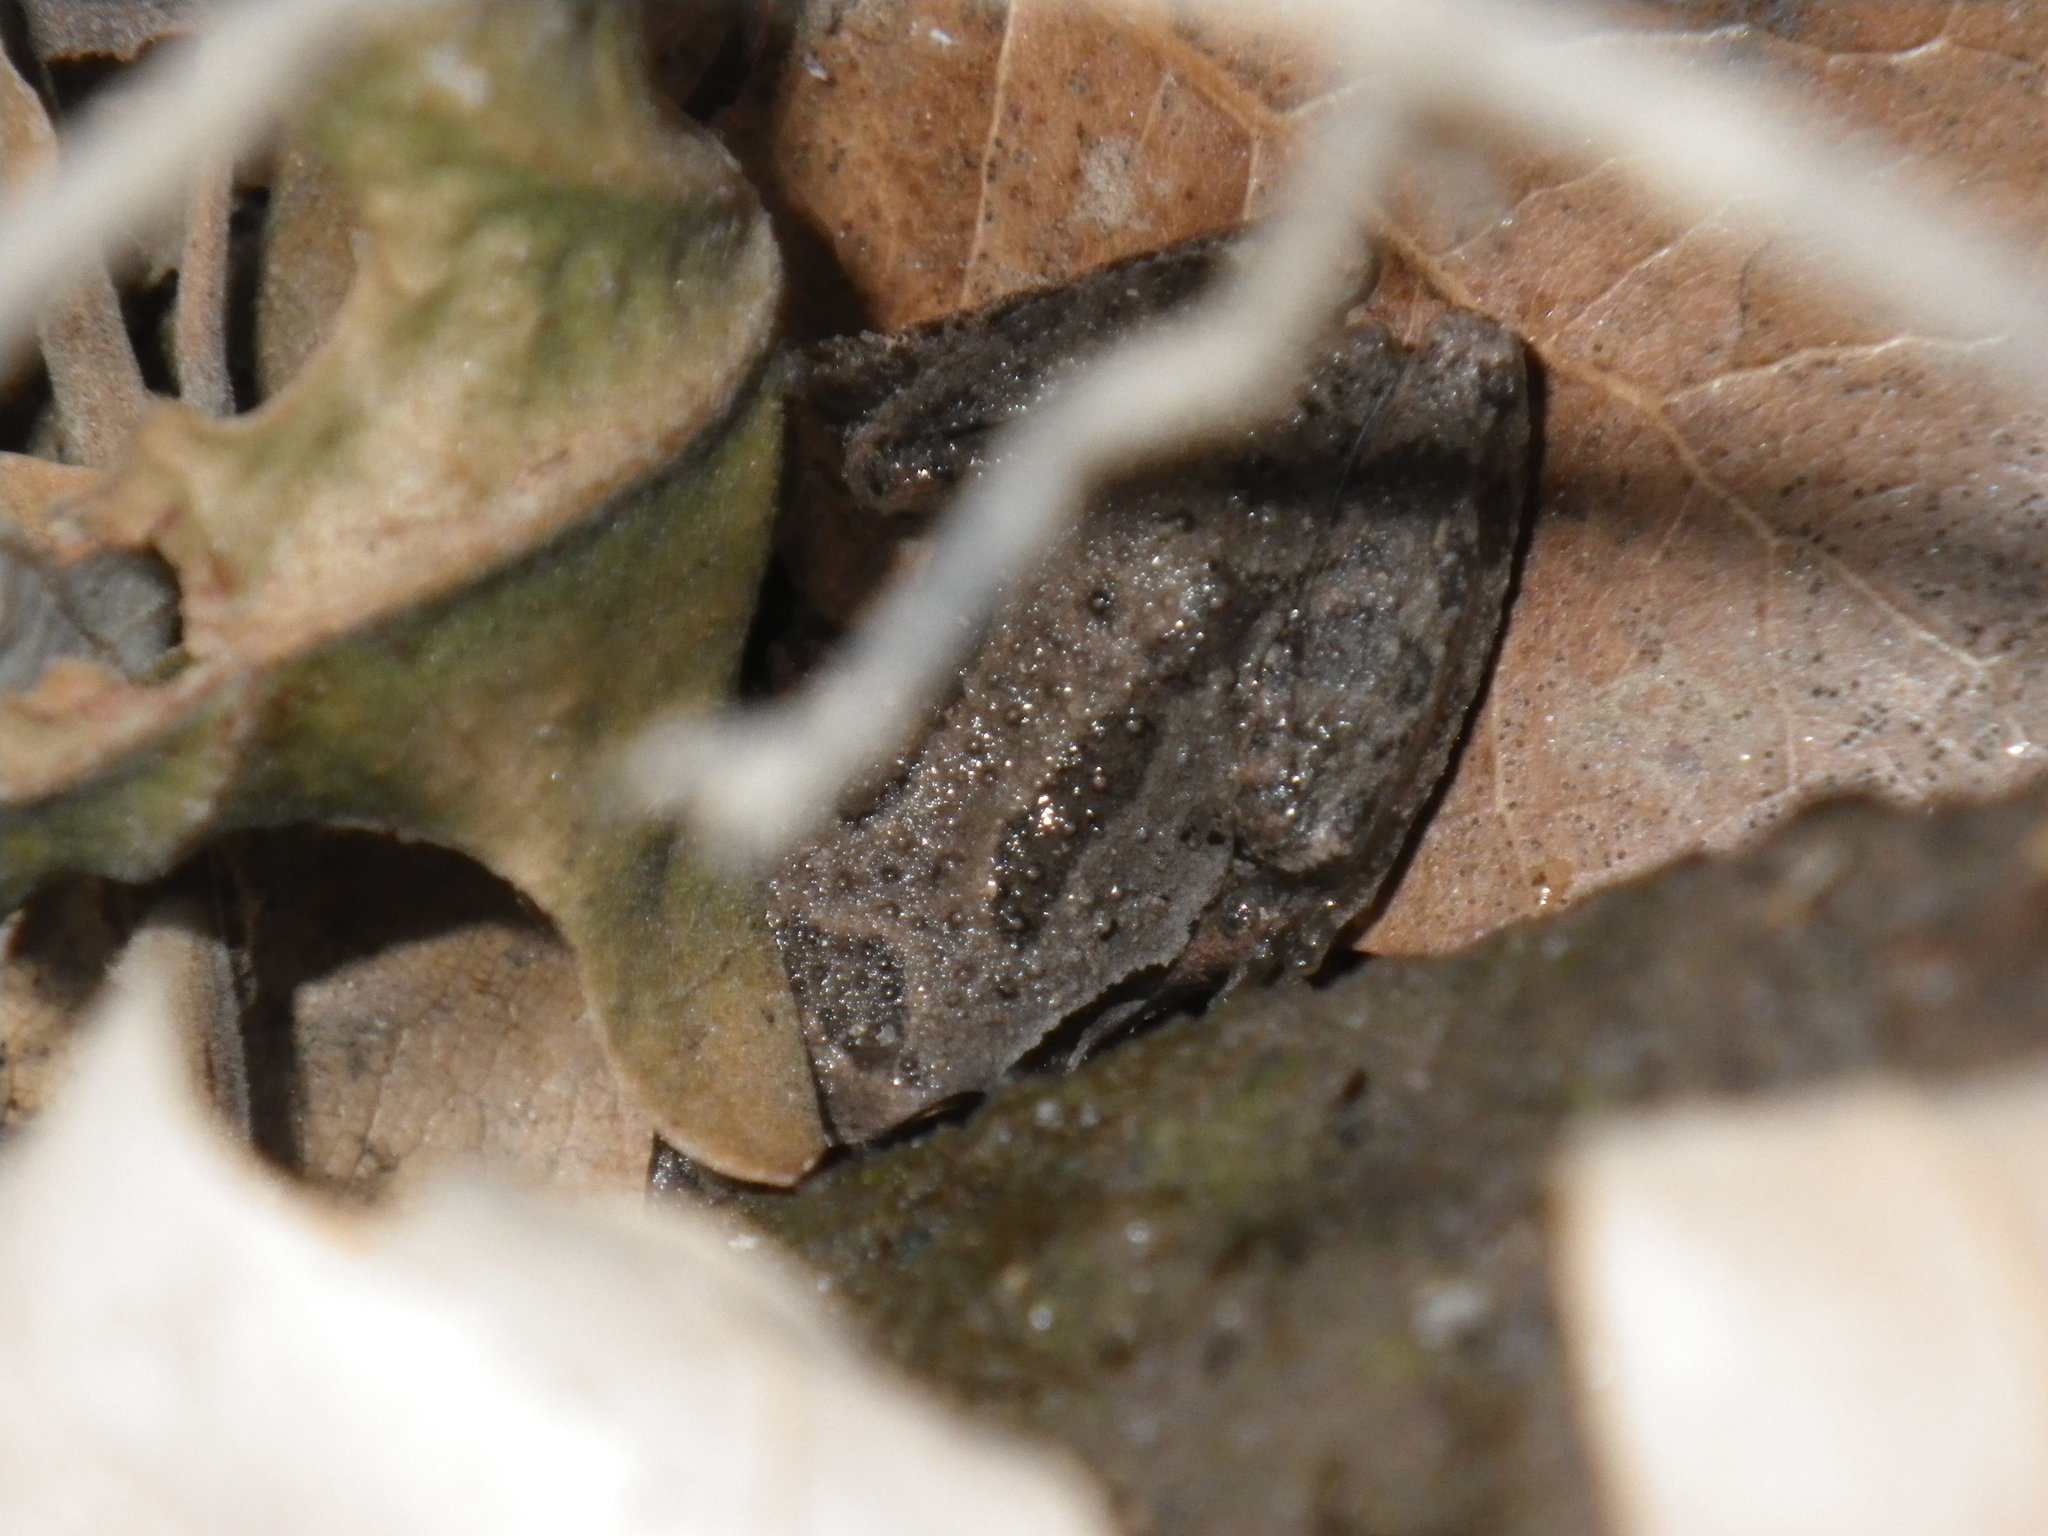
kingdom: Animalia
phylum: Chordata
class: Amphibia
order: Anura
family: Hylidae
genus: Pseudacris
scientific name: Pseudacris regilla
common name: Pacific chorus frog
